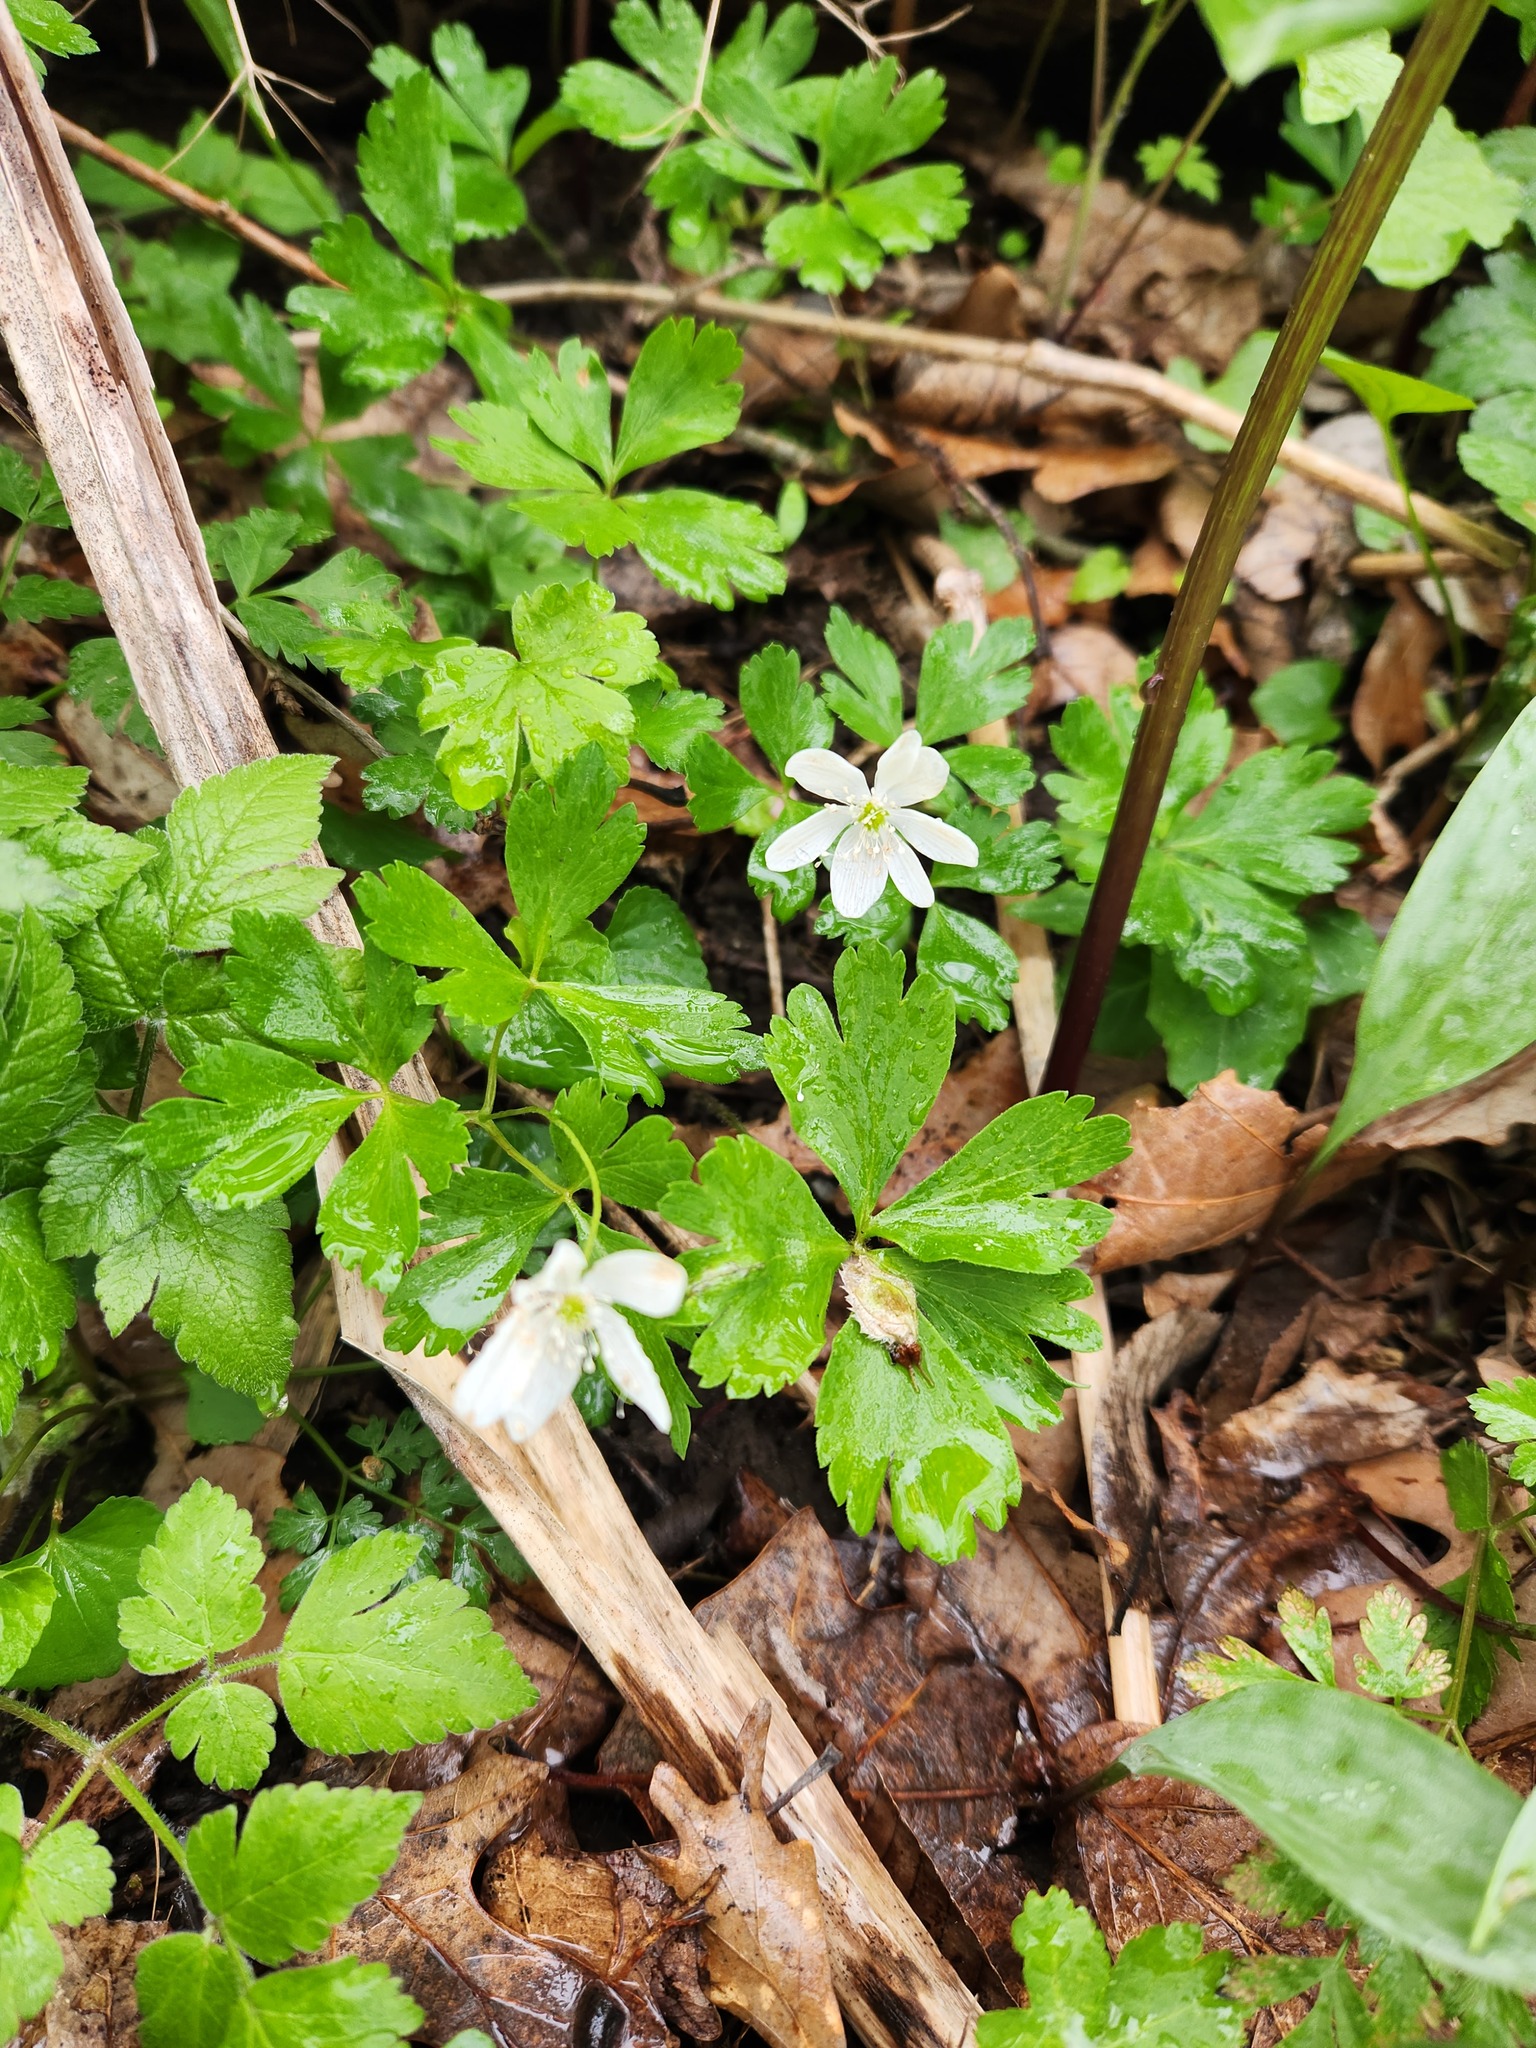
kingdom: Plantae
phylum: Tracheophyta
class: Magnoliopsida
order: Ranunculales
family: Ranunculaceae
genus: Anemone
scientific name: Anemone quinquefolia
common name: Wood anemone
